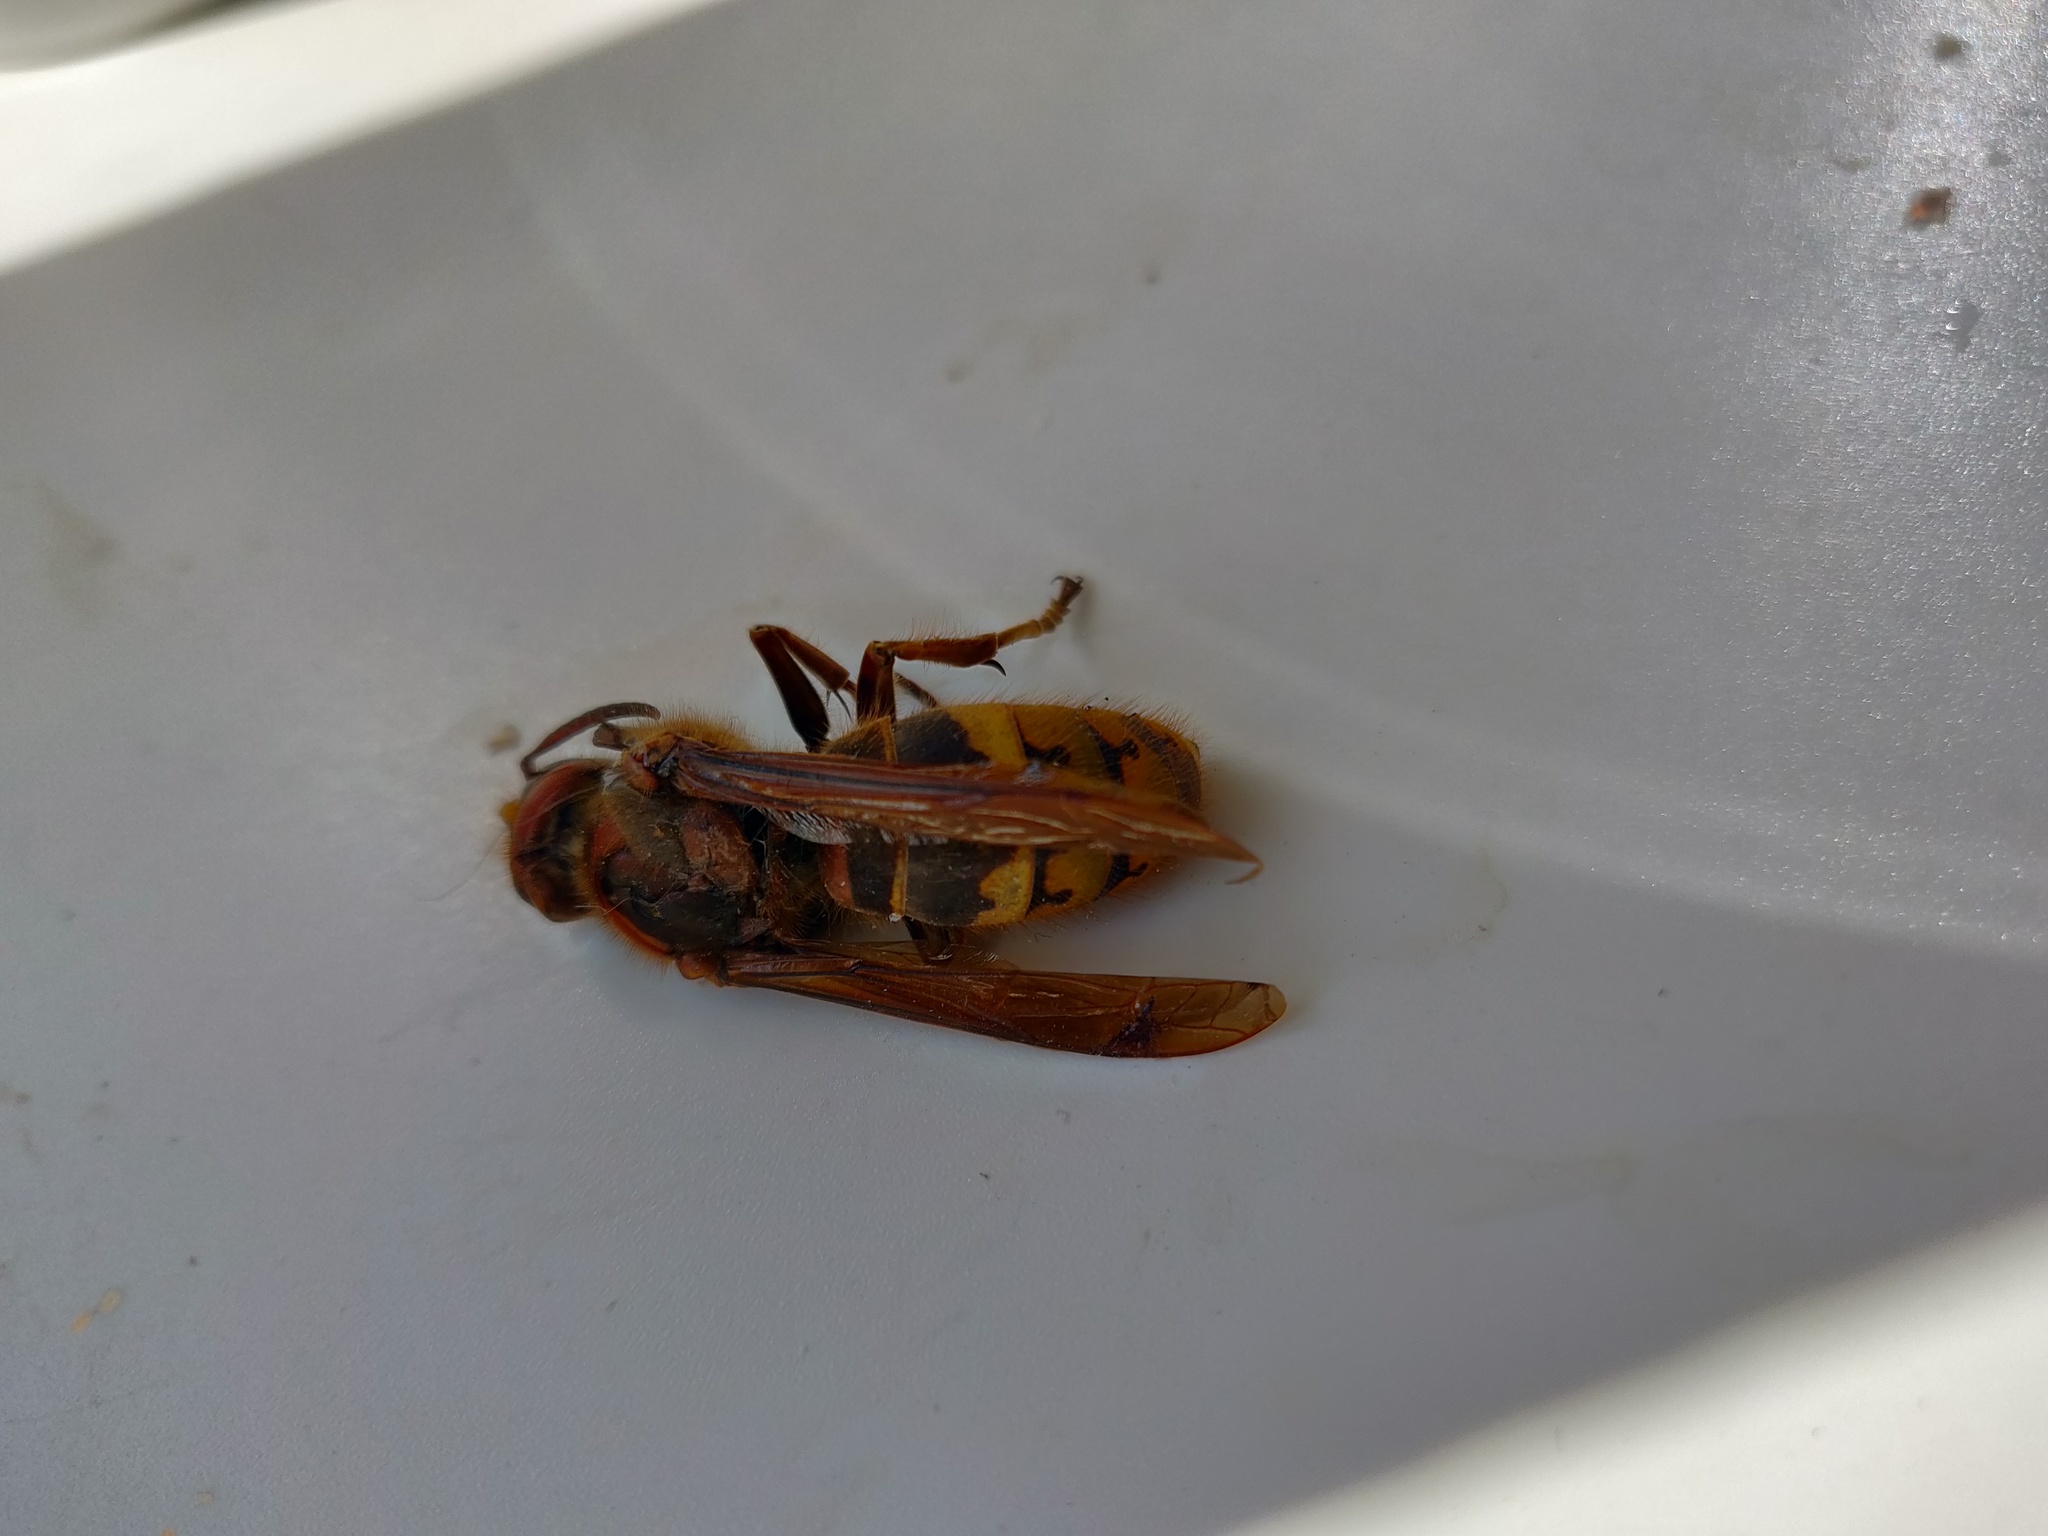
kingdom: Animalia
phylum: Arthropoda
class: Insecta
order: Hymenoptera
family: Vespidae
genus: Vespa
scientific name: Vespa crabro
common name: Hornet
